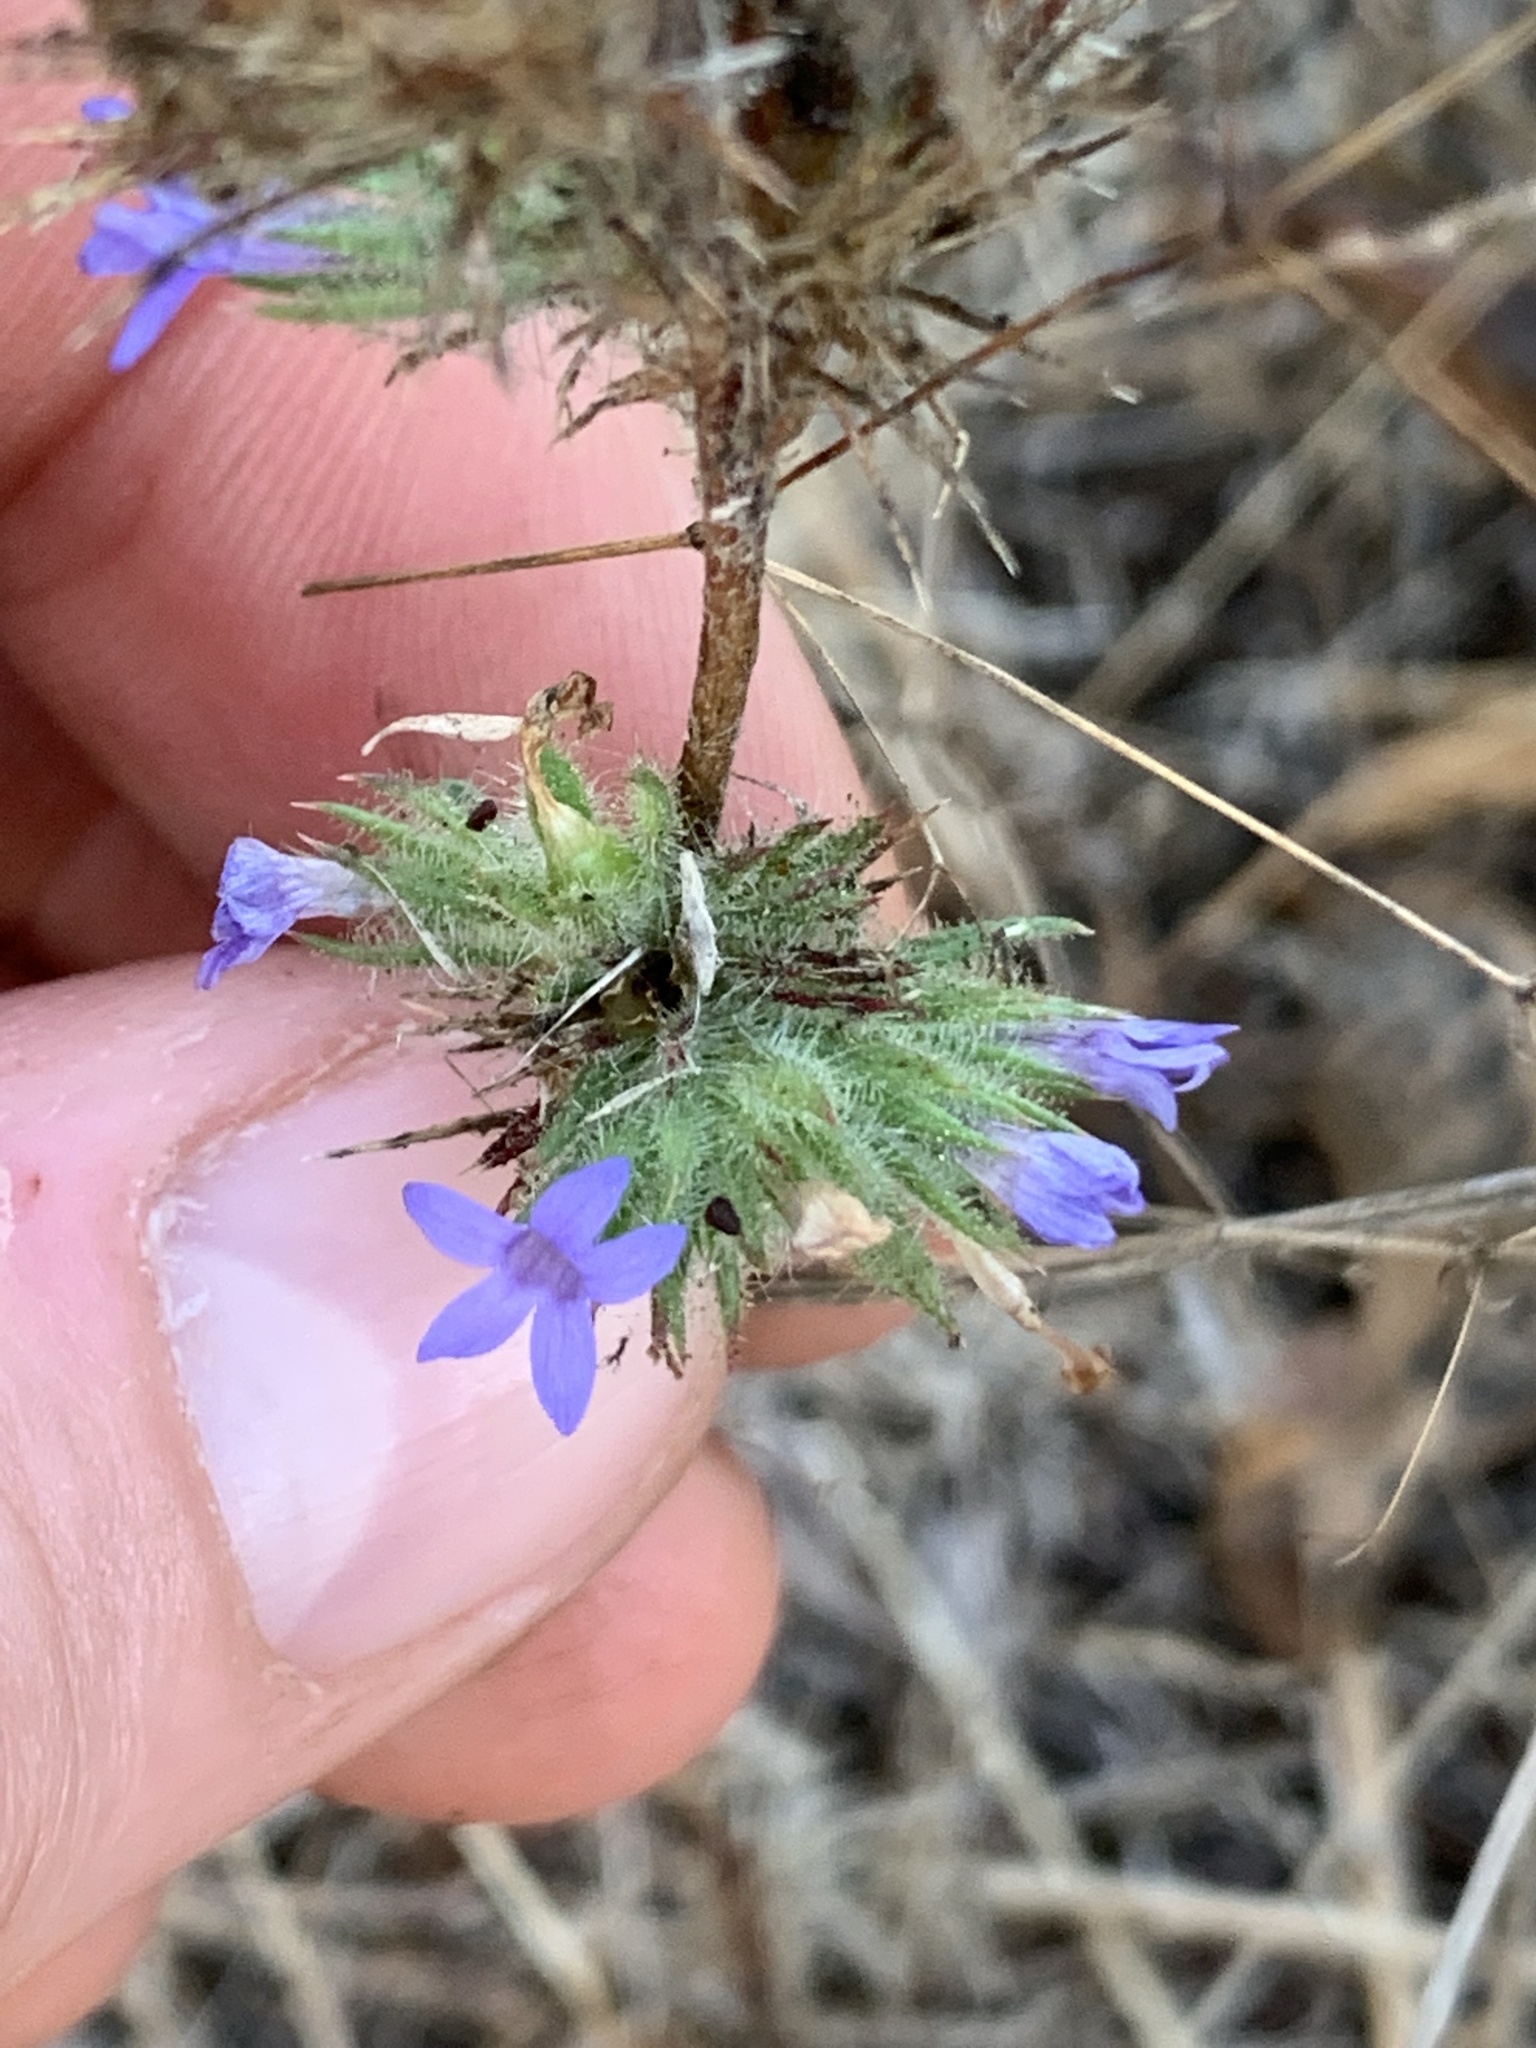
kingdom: Plantae
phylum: Tracheophyta
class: Magnoliopsida
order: Ericales
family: Polemoniaceae
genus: Navarretia
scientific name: Navarretia squarrosa
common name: Skunkweed
